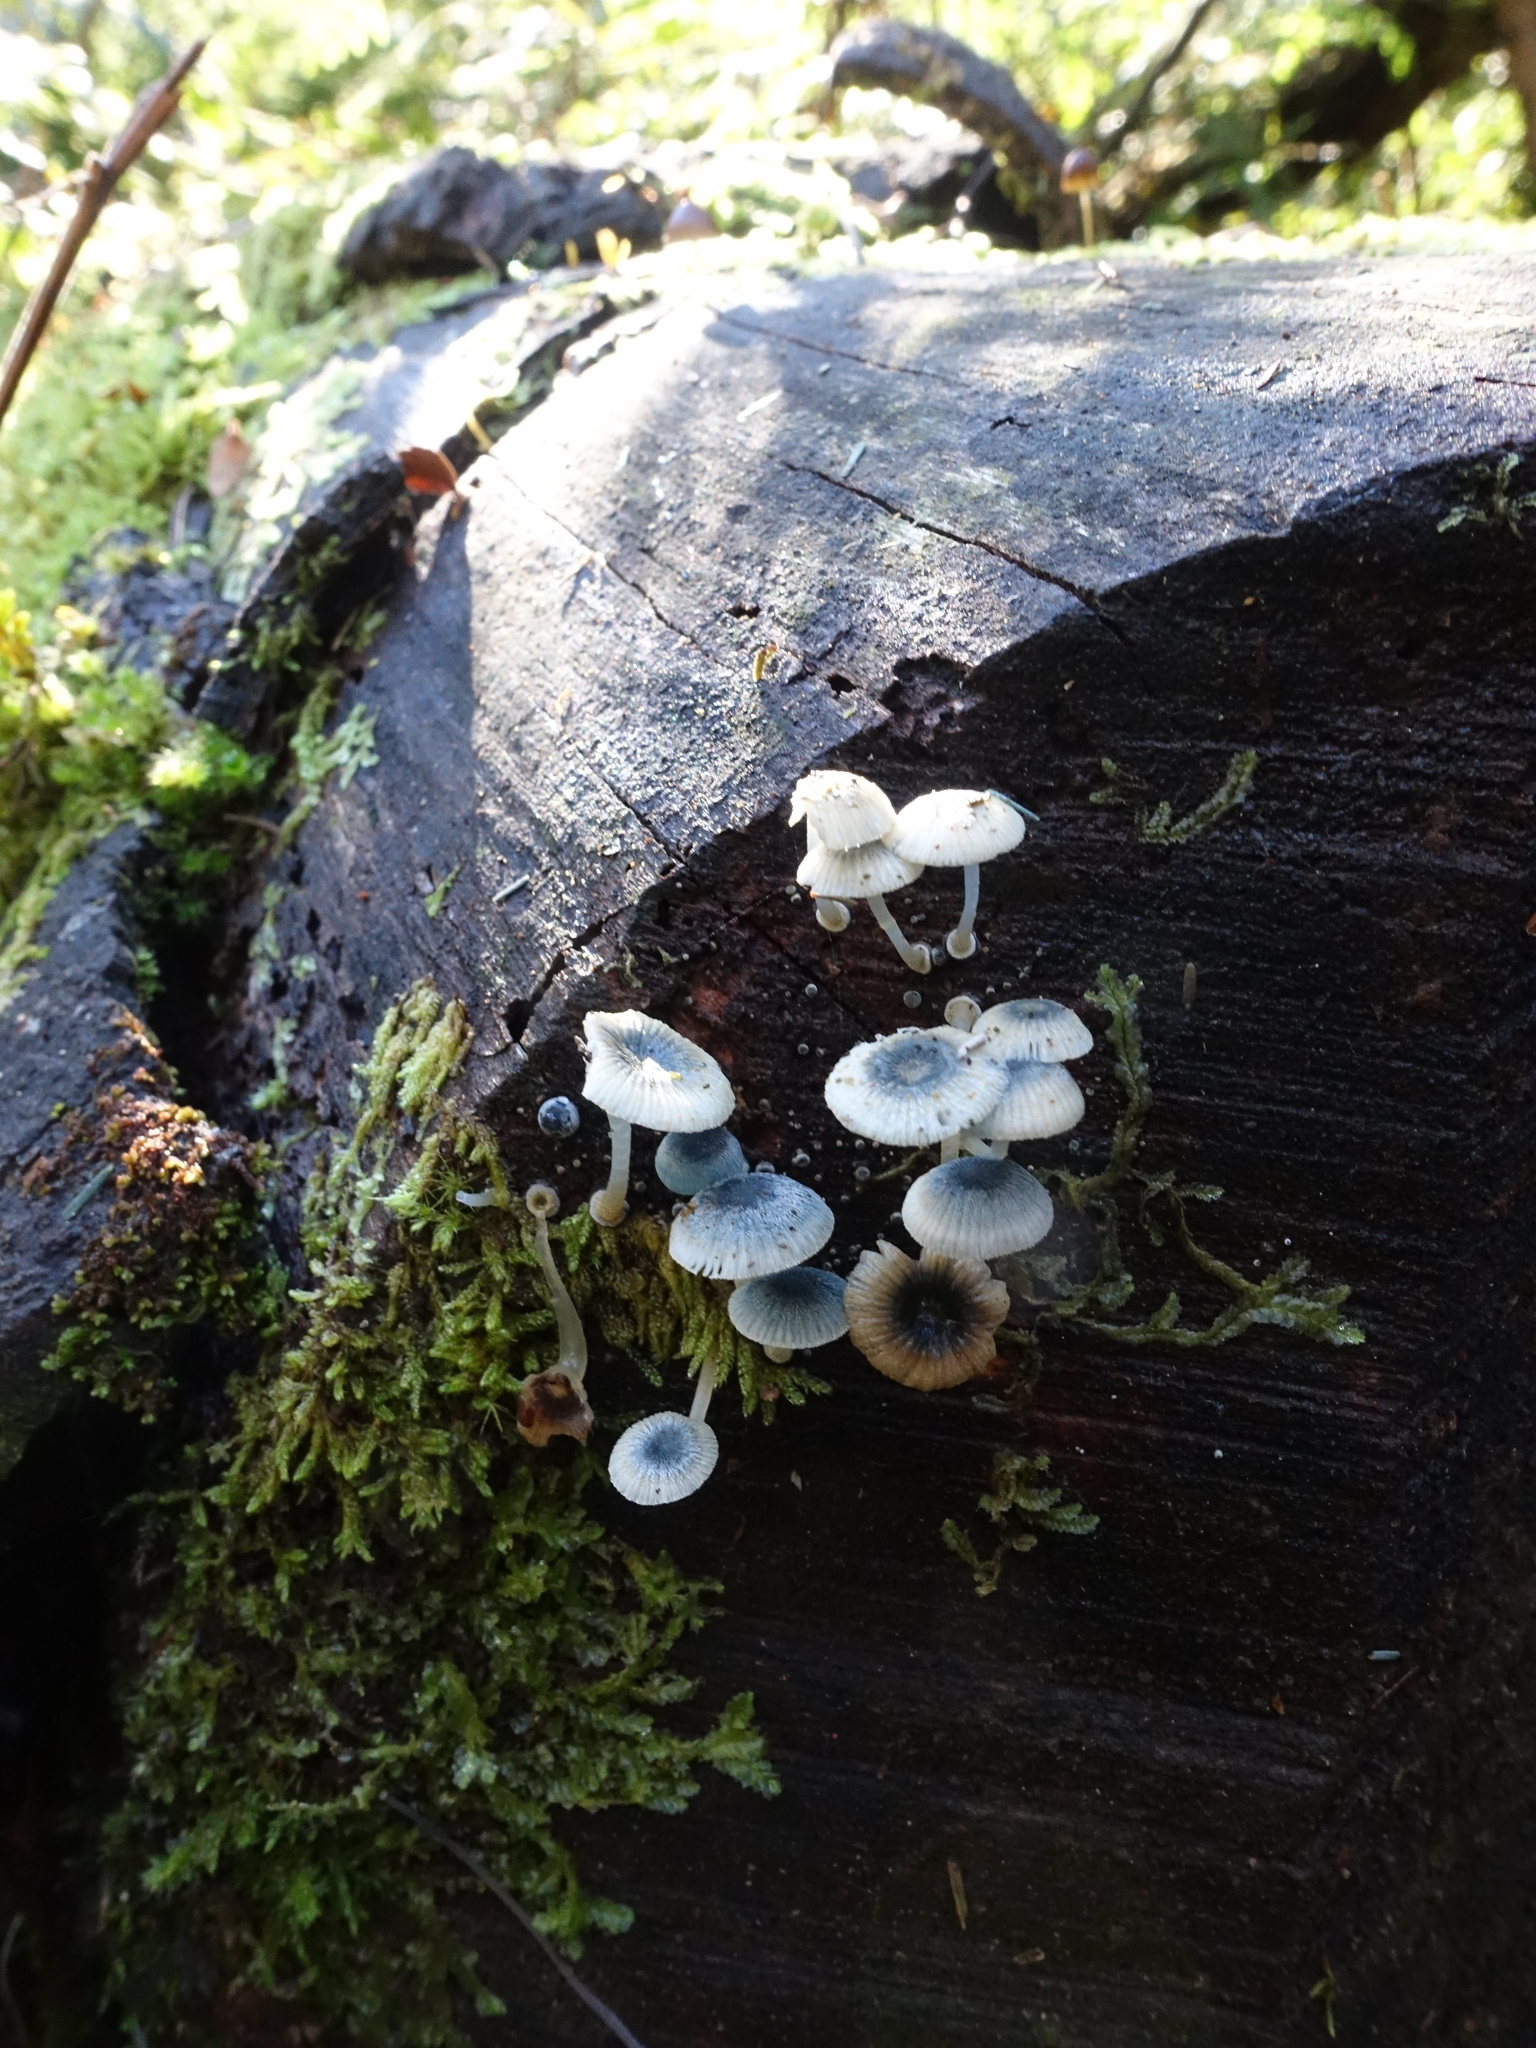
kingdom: Fungi
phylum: Basidiomycota
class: Agaricomycetes
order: Agaricales
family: Mycenaceae
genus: Mycena
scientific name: Mycena interrupta
